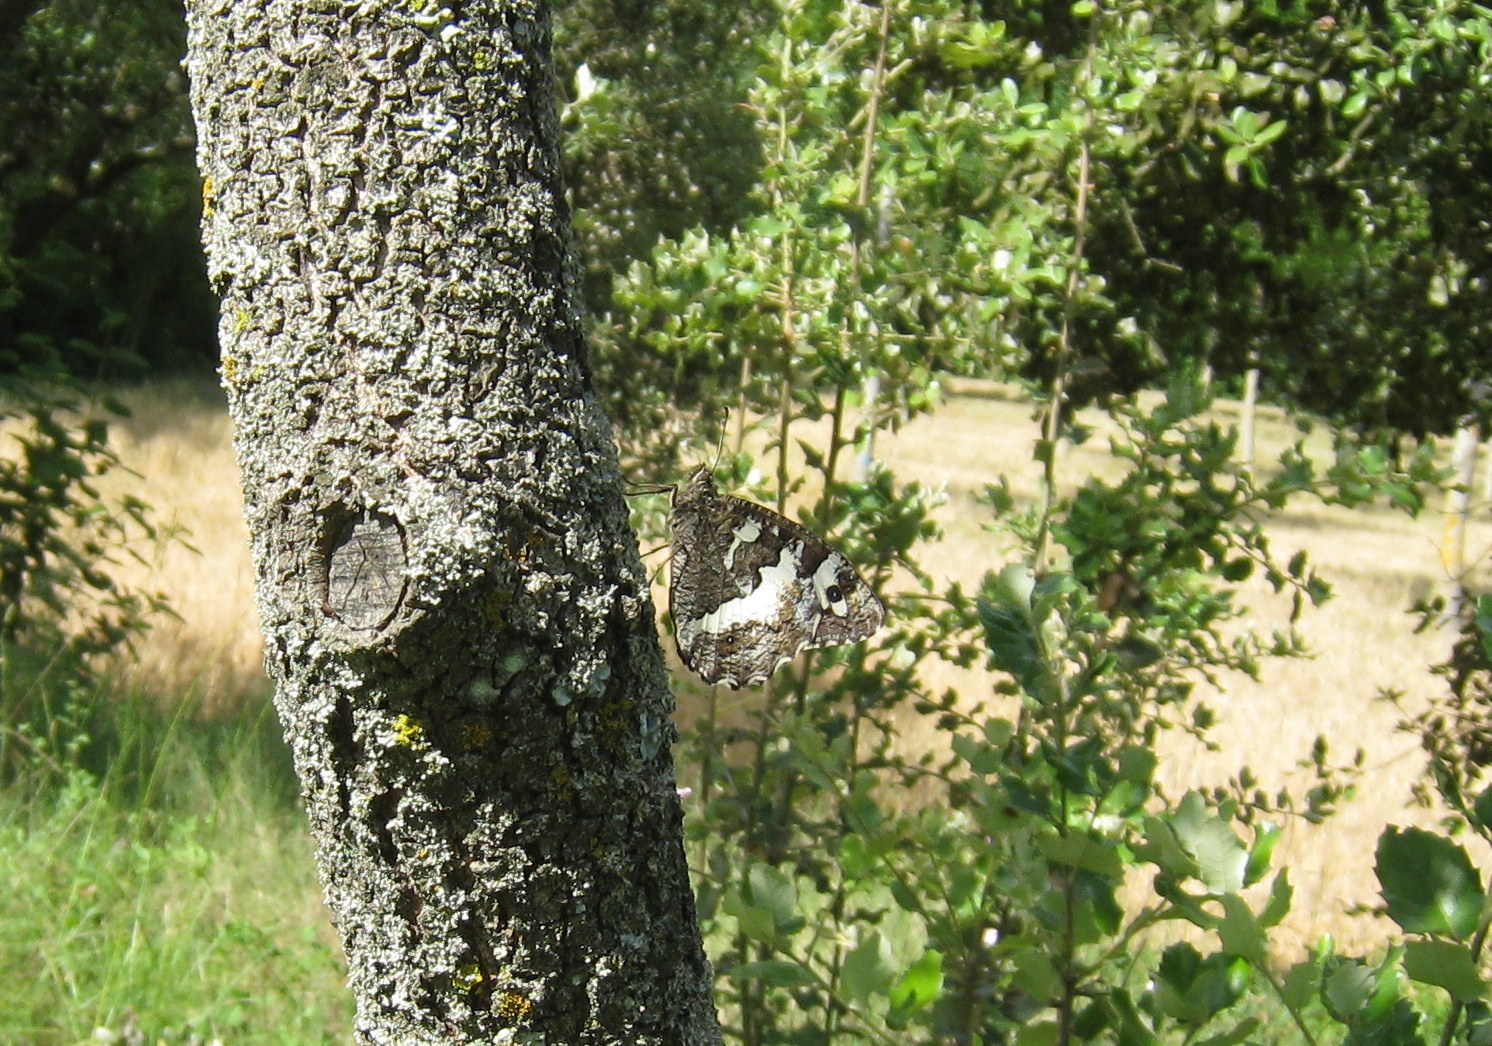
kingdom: Animalia
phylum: Arthropoda
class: Insecta
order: Lepidoptera
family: Lycaenidae
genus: Loweia
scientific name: Loweia tityrus
